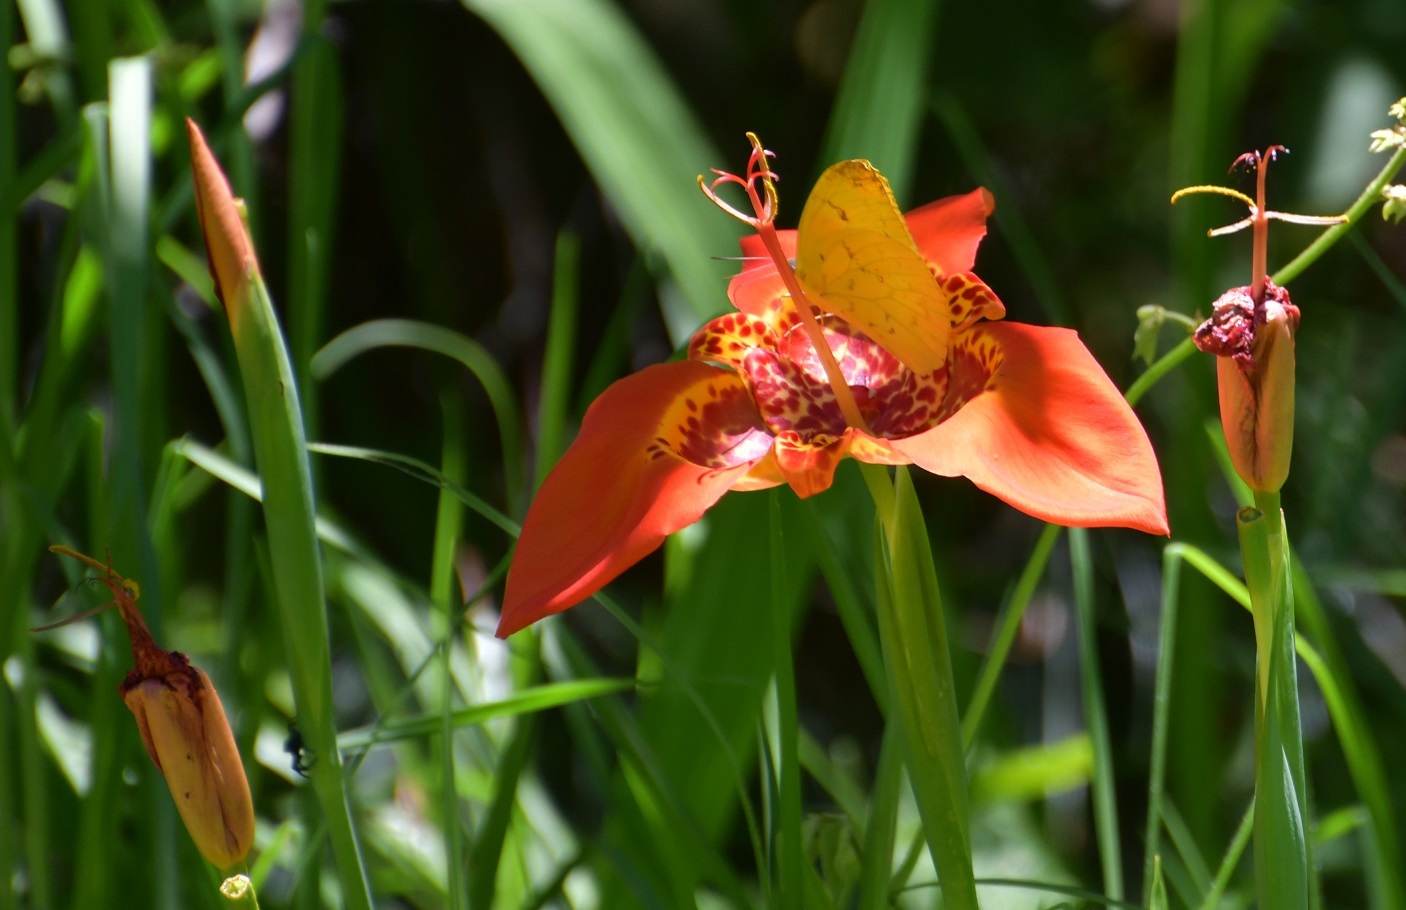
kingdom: Animalia
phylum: Arthropoda
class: Insecta
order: Lepidoptera
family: Pieridae
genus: Phoebis
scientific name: Phoebis philea
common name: Orange-barred giant sulphur
